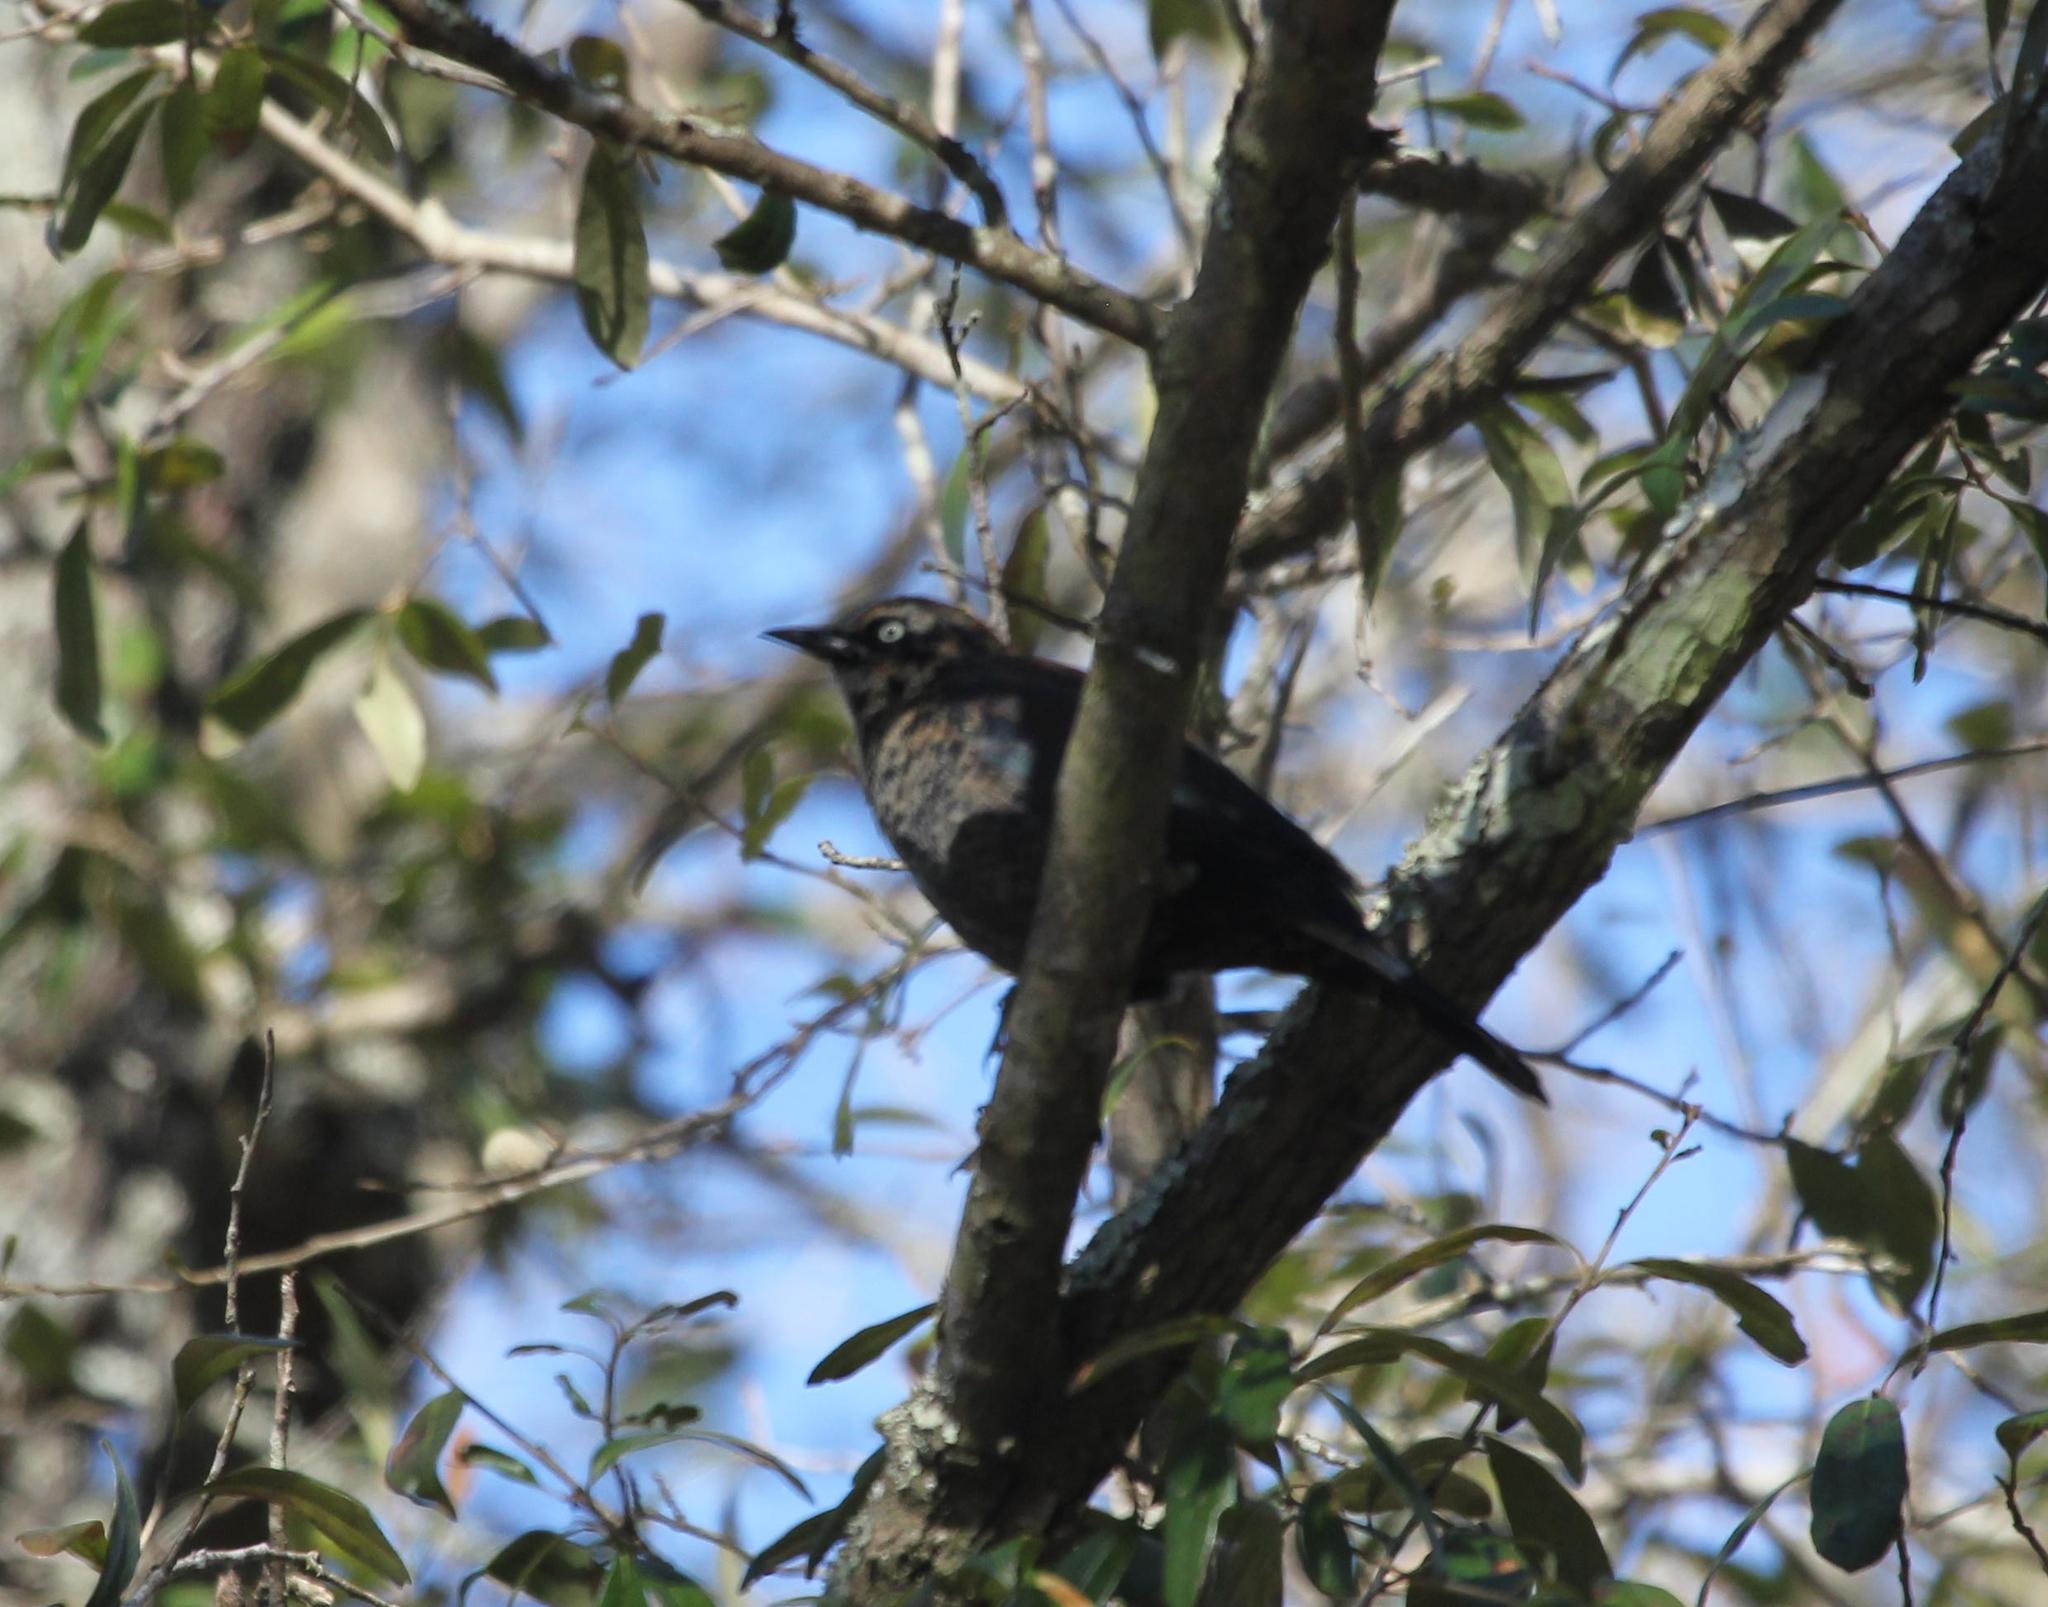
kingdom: Animalia
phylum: Chordata
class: Aves
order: Passeriformes
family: Icteridae
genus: Euphagus
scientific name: Euphagus carolinus
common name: Rusty blackbird
